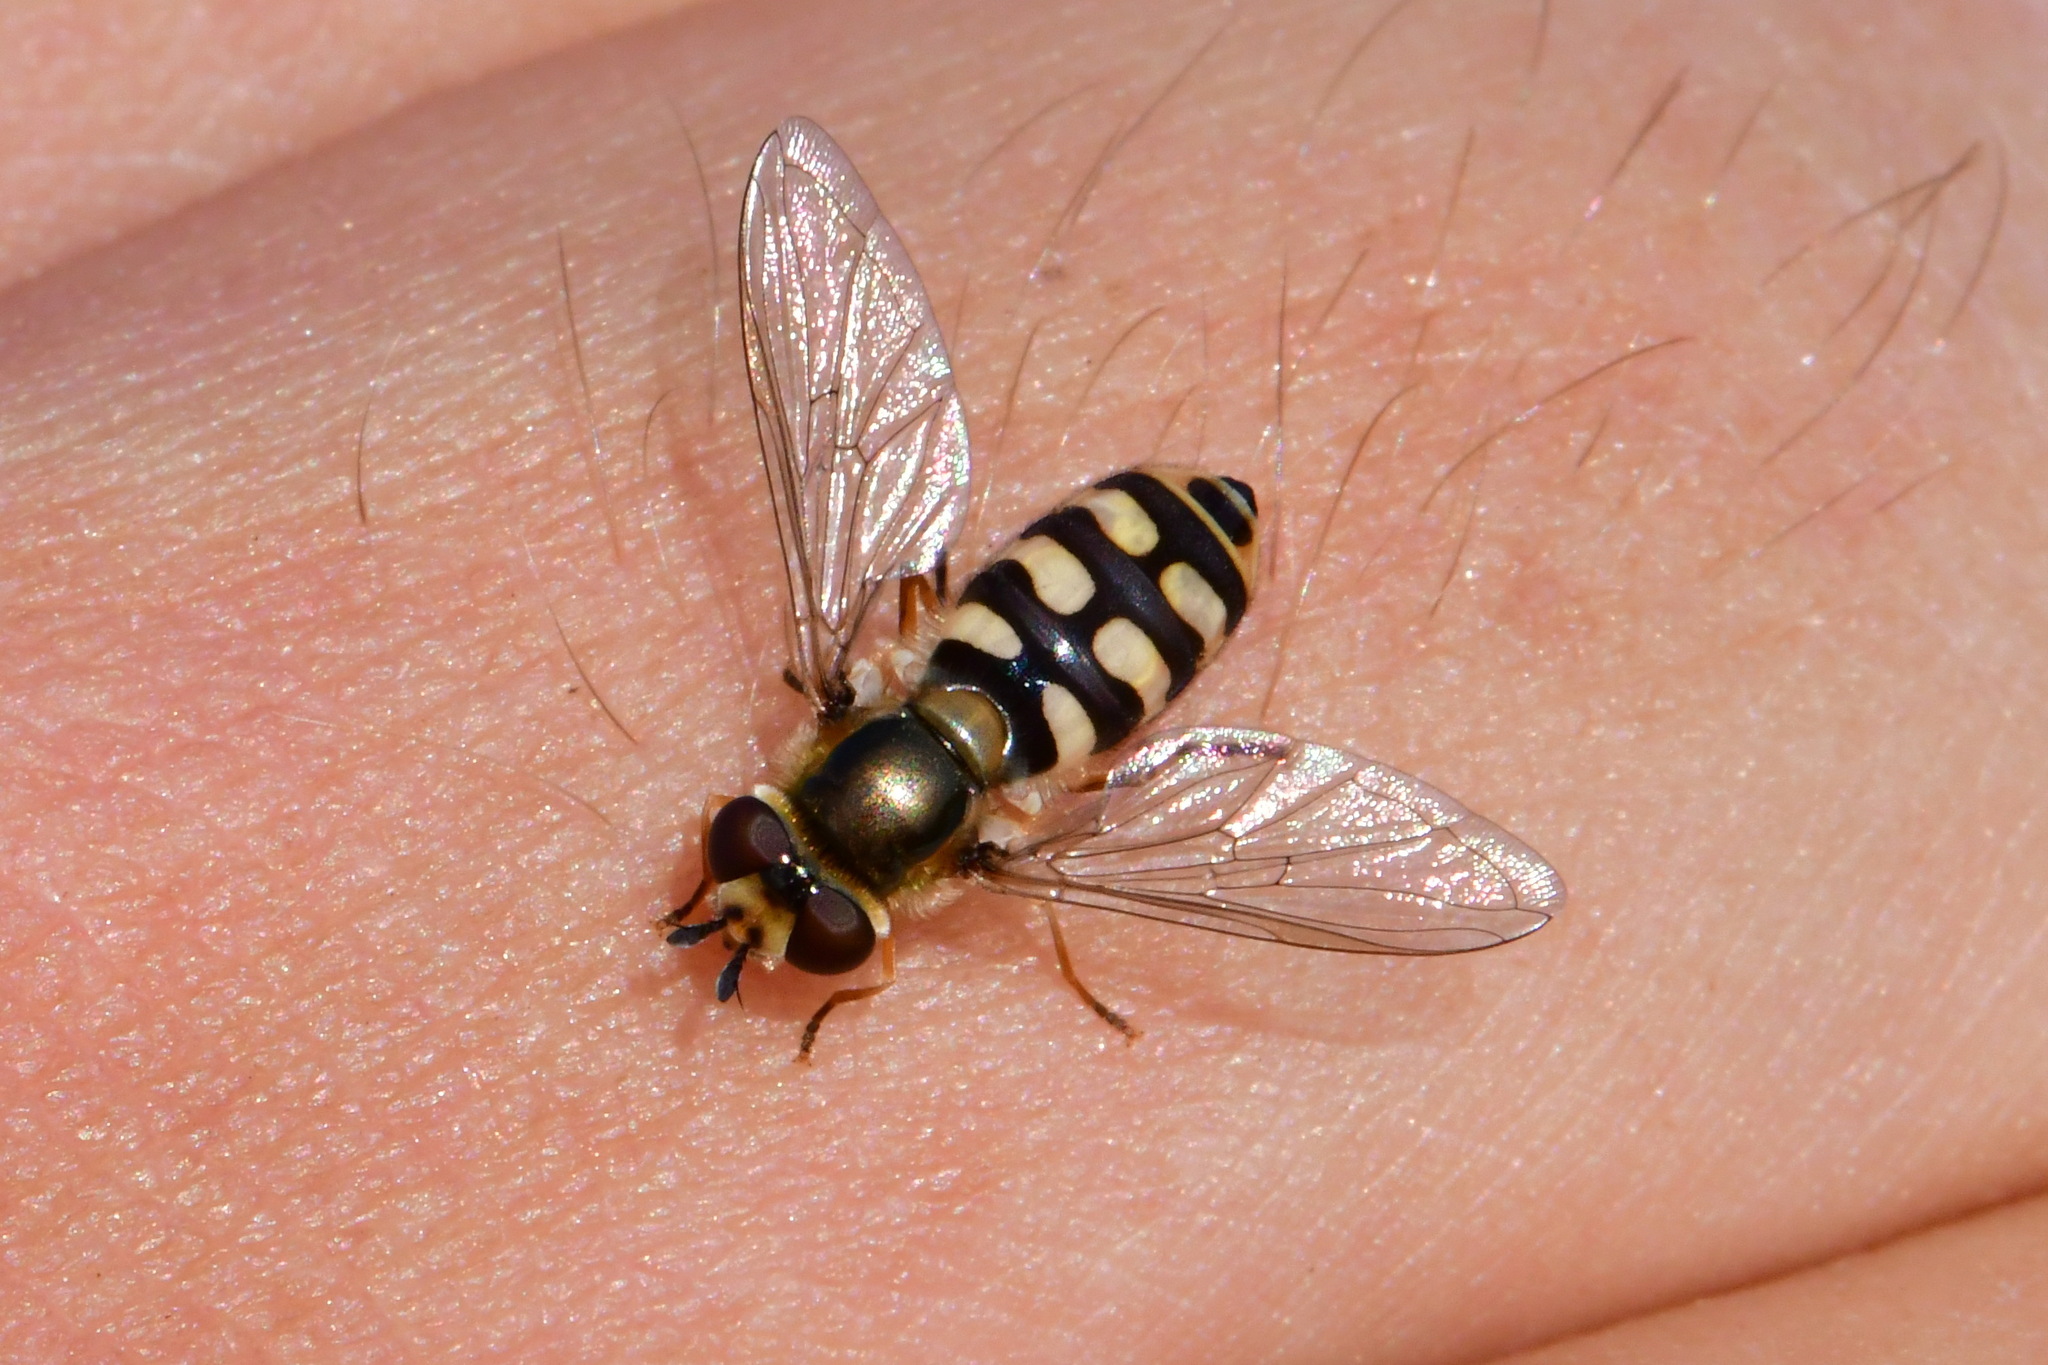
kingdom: Animalia
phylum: Arthropoda
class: Insecta
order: Diptera
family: Syrphidae
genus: Eupeodes
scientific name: Eupeodes corollae
